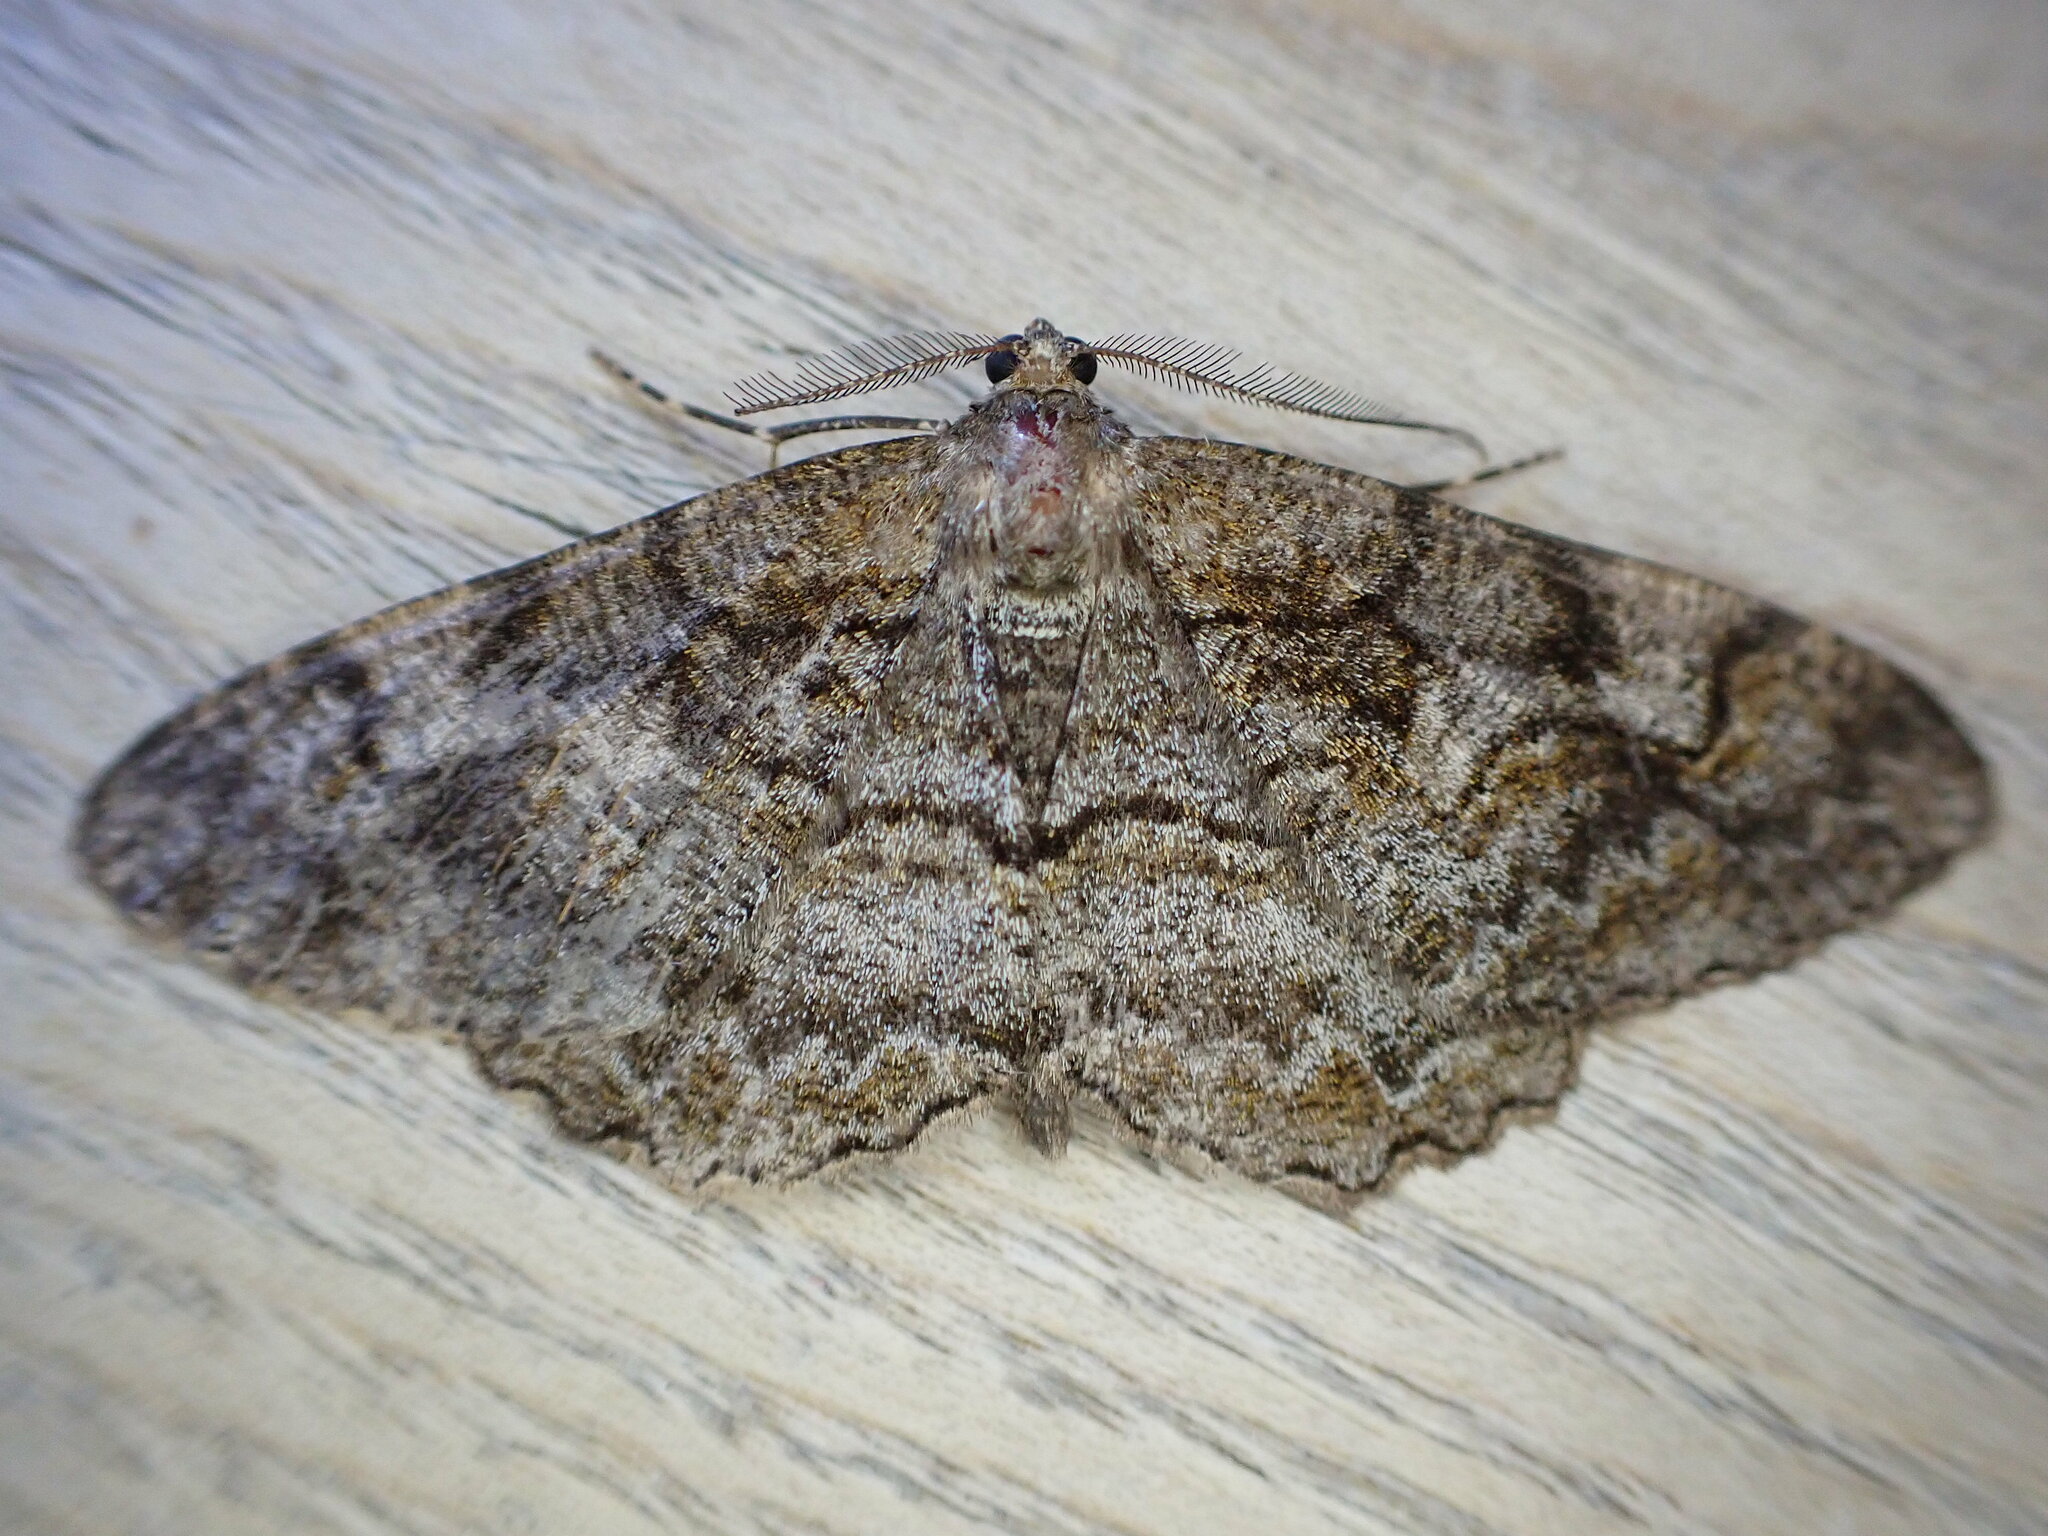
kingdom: Animalia
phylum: Arthropoda
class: Insecta
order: Lepidoptera
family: Geometridae
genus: Alcis
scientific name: Alcis repandata
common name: Mottled beauty
